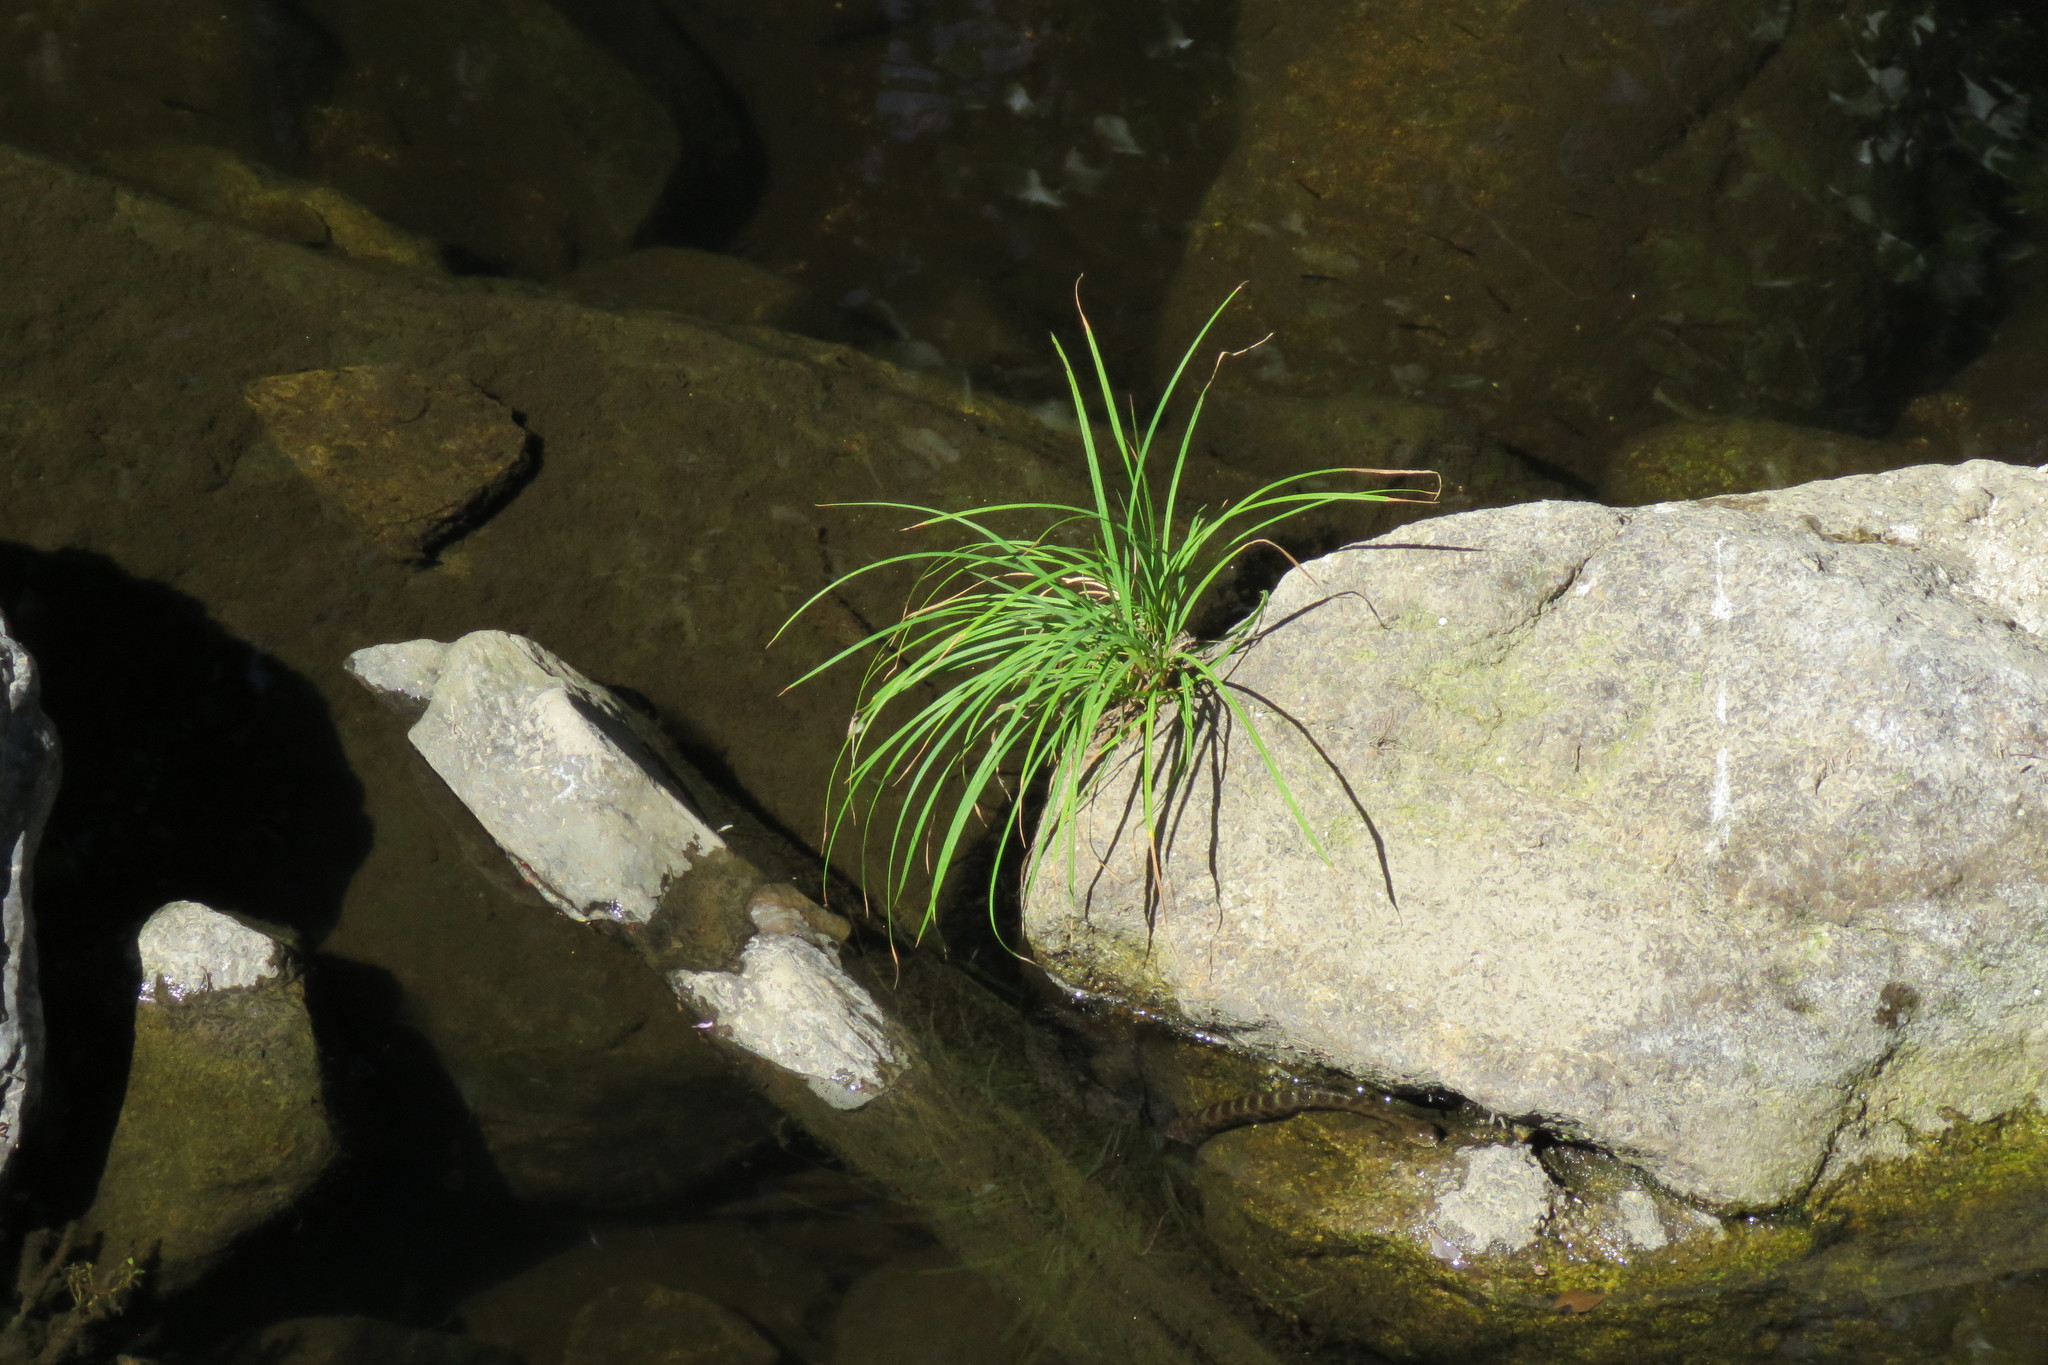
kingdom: Plantae
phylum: Tracheophyta
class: Liliopsida
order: Poales
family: Cyperaceae
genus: Carex
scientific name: Carex reuteriana
